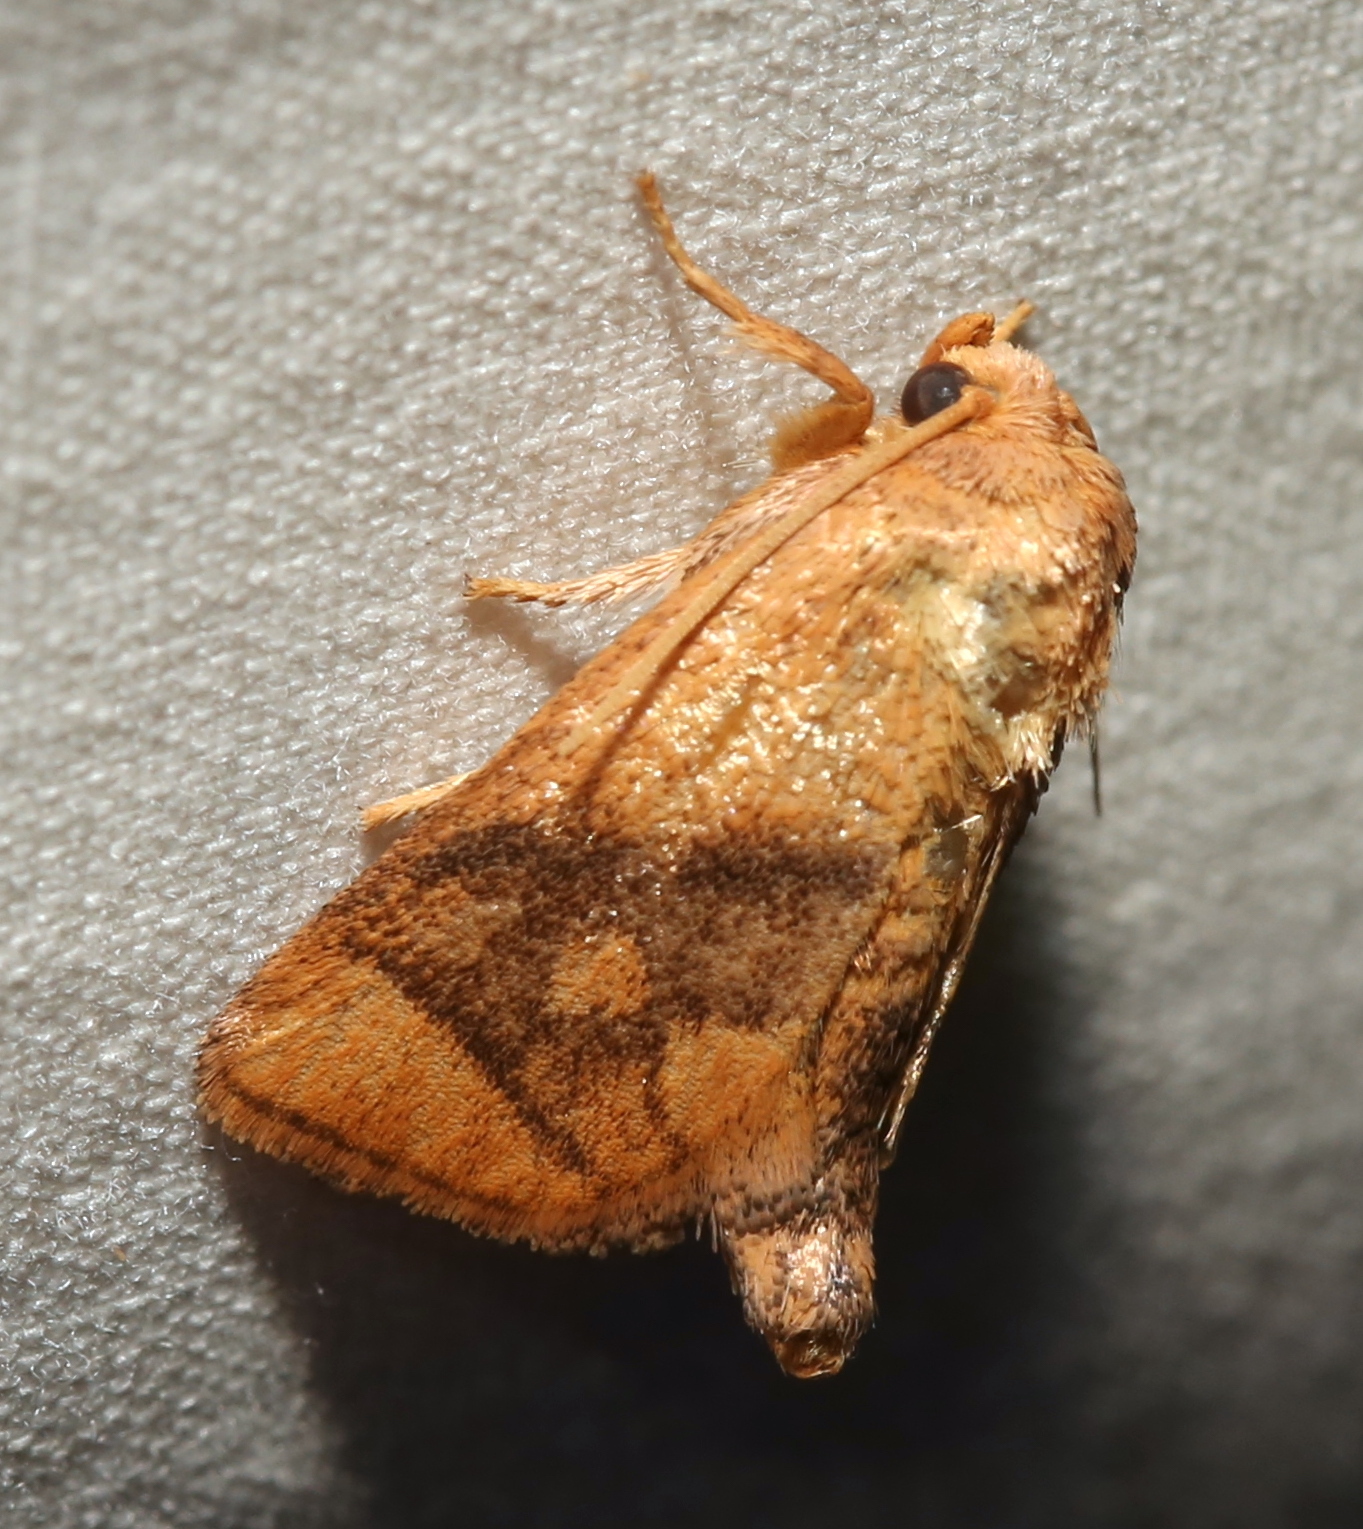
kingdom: Animalia
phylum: Arthropoda
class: Insecta
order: Lepidoptera
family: Limacodidae
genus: Apoda
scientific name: Apoda y-inversa
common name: Yellow-collared slug moth
